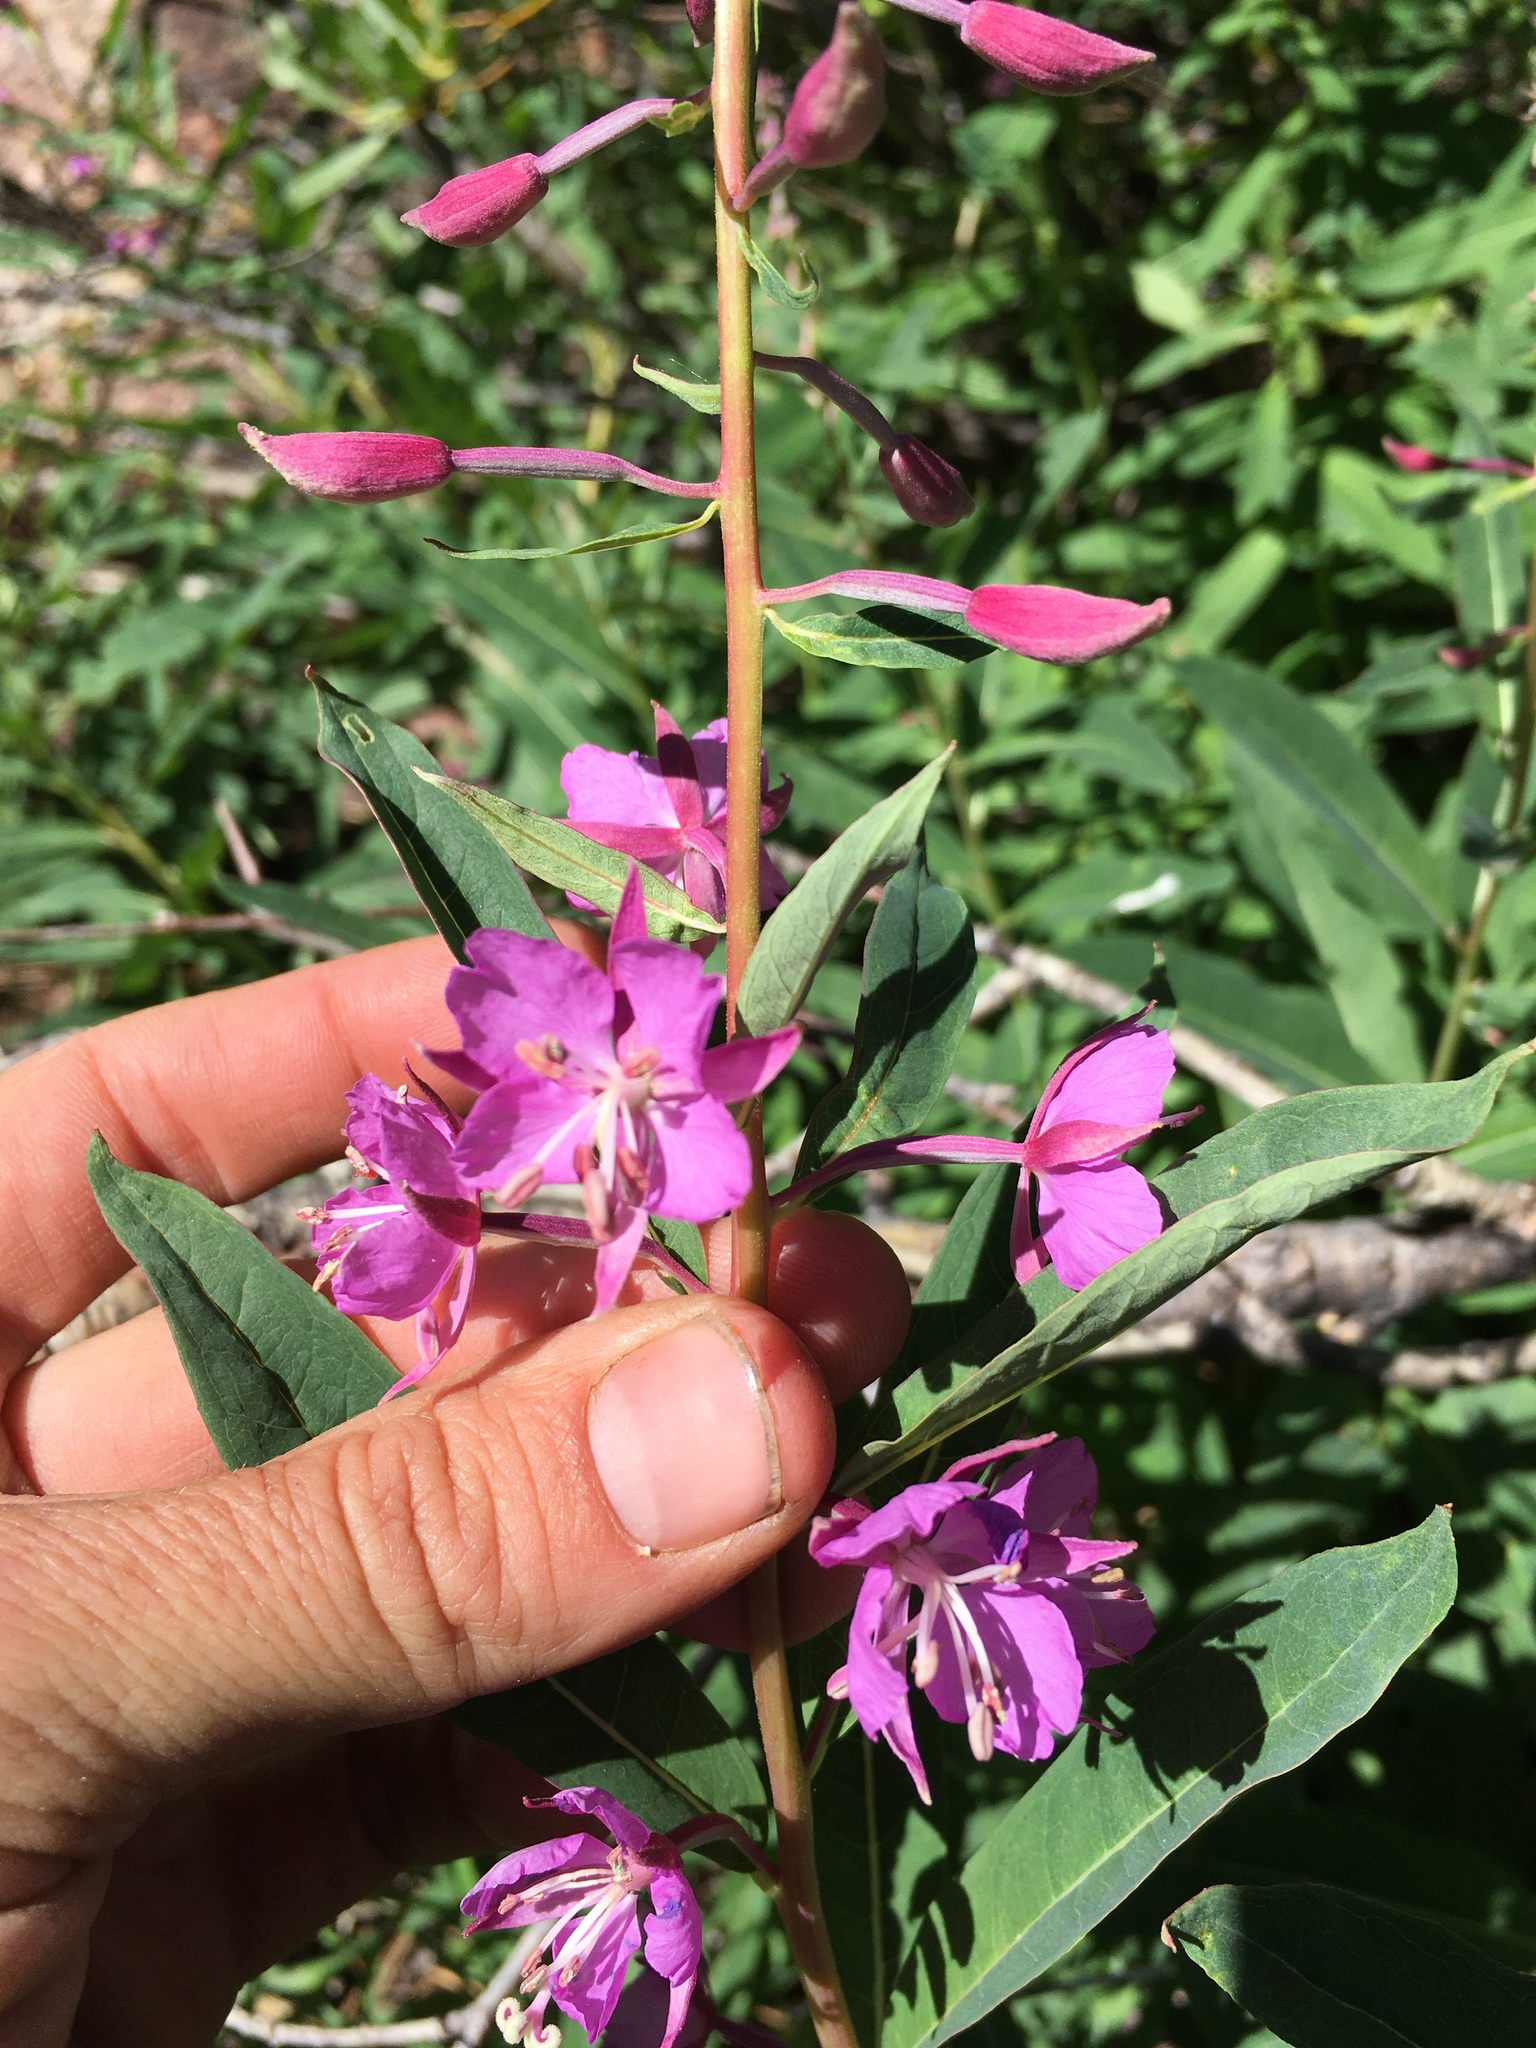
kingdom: Plantae
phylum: Tracheophyta
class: Magnoliopsida
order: Myrtales
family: Onagraceae
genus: Chamaenerion
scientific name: Chamaenerion angustifolium
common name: Fireweed
